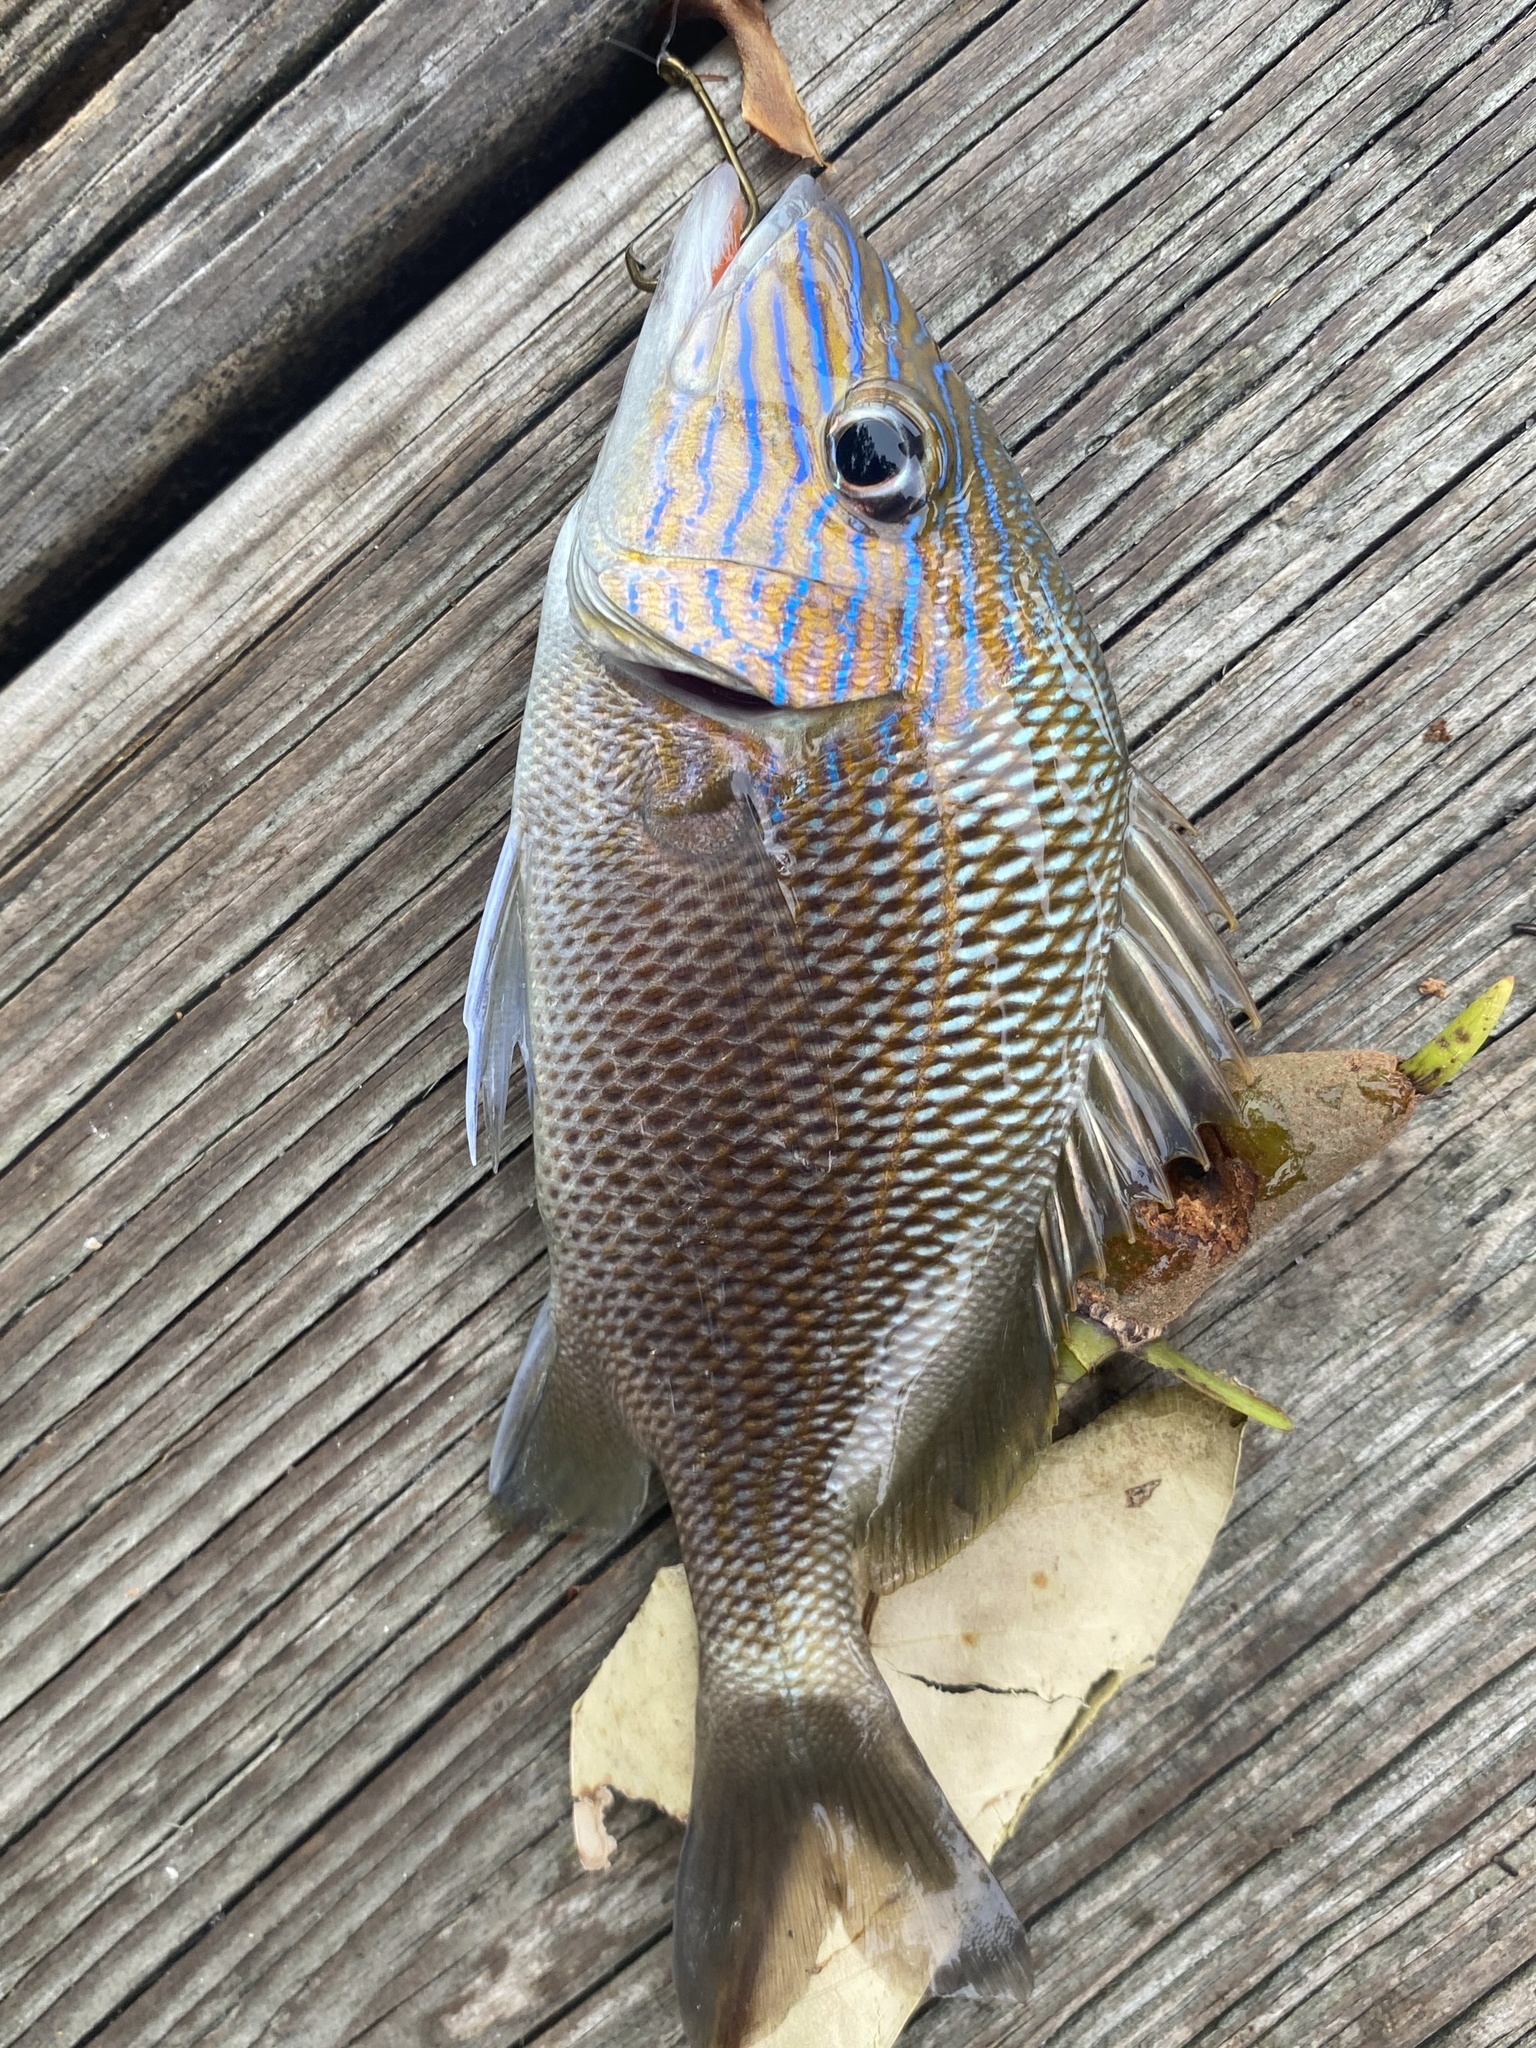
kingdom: Animalia
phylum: Chordata
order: Perciformes
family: Haemulidae
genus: Haemulon
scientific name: Haemulon plumierii
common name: White grunt
